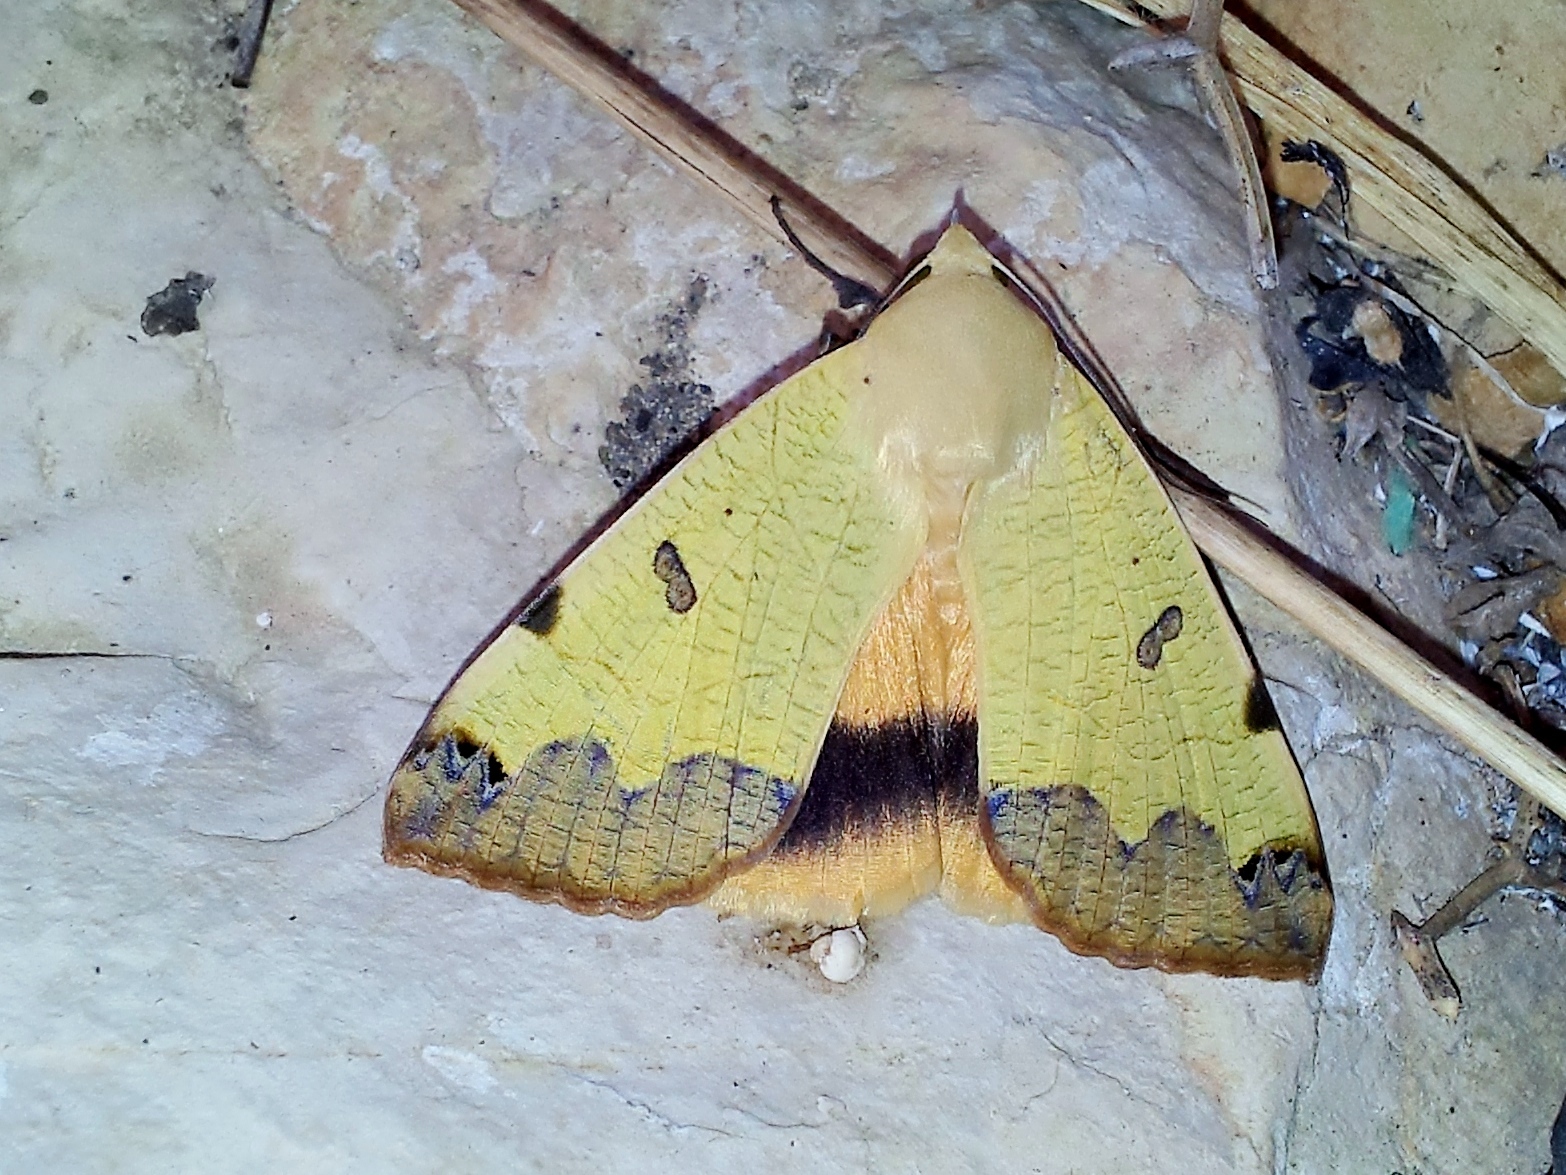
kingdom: Animalia
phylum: Arthropoda
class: Insecta
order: Lepidoptera
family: Erebidae
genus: Ophiusa
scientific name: Ophiusa tirhaca
